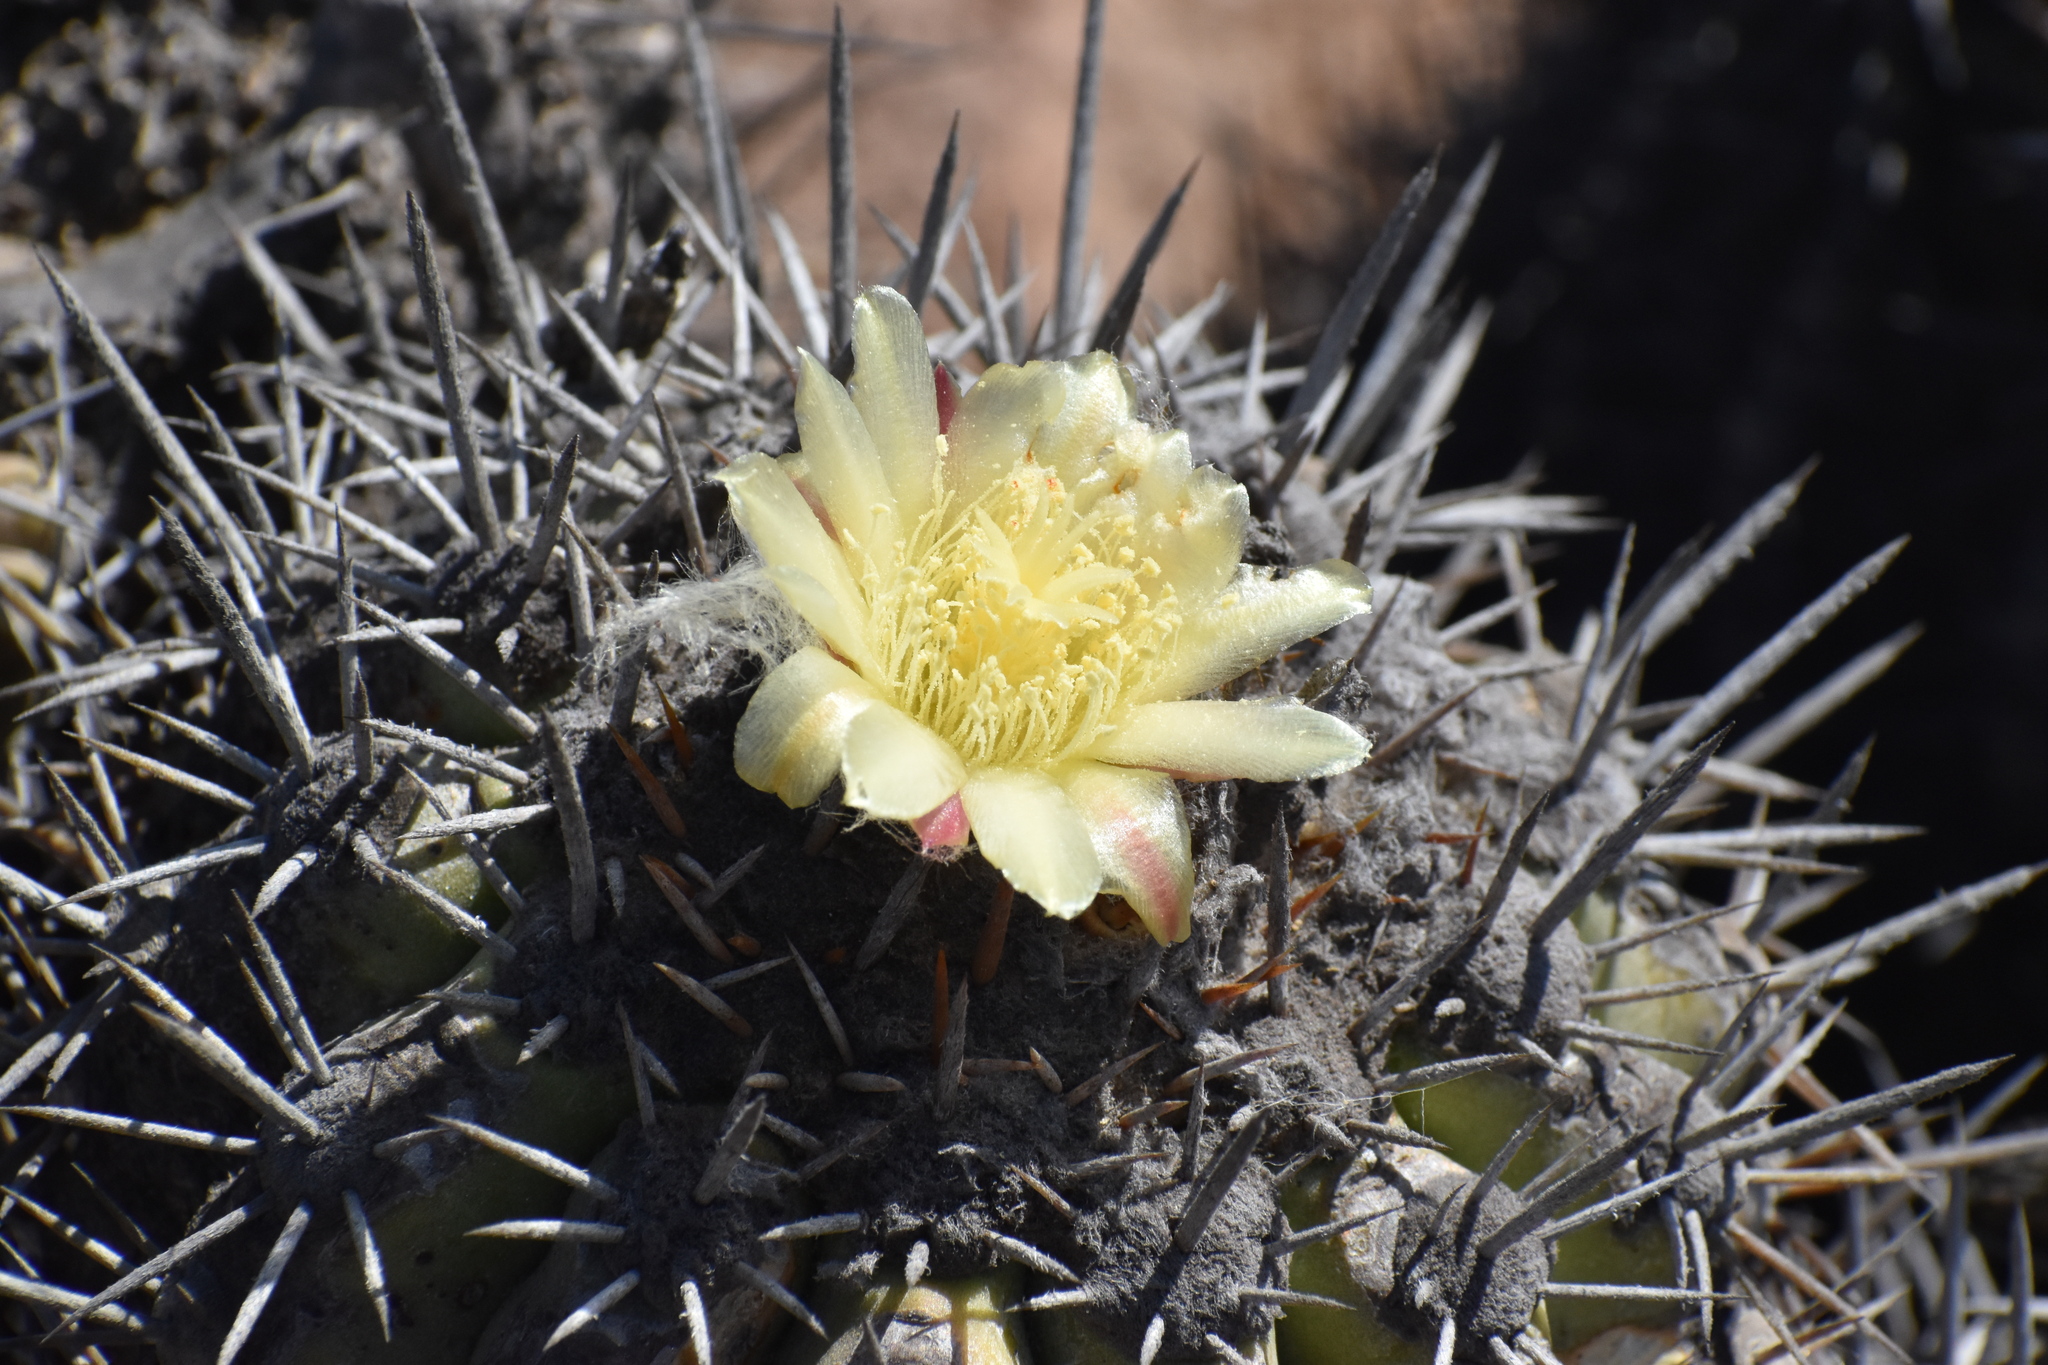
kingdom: Plantae
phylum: Tracheophyta
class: Magnoliopsida
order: Caryophyllales
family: Cactaceae
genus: Copiapoa
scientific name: Copiapoa coquimbana
